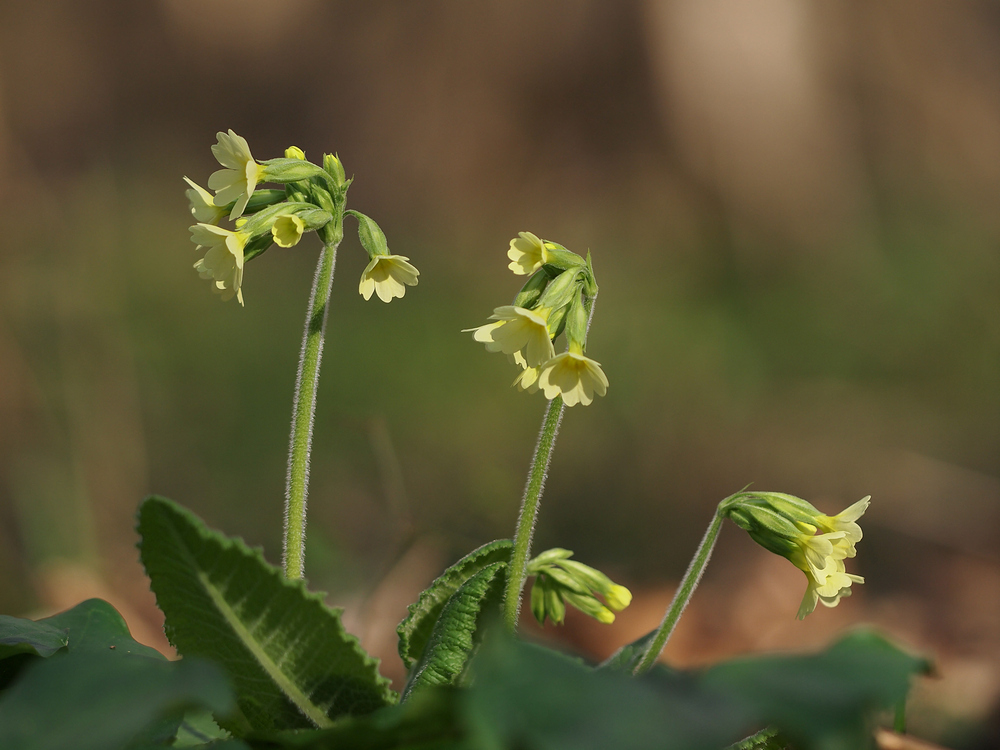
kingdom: Plantae
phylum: Tracheophyta
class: Magnoliopsida
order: Ericales
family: Primulaceae
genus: Primula
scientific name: Primula elatior
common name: Oxlip
